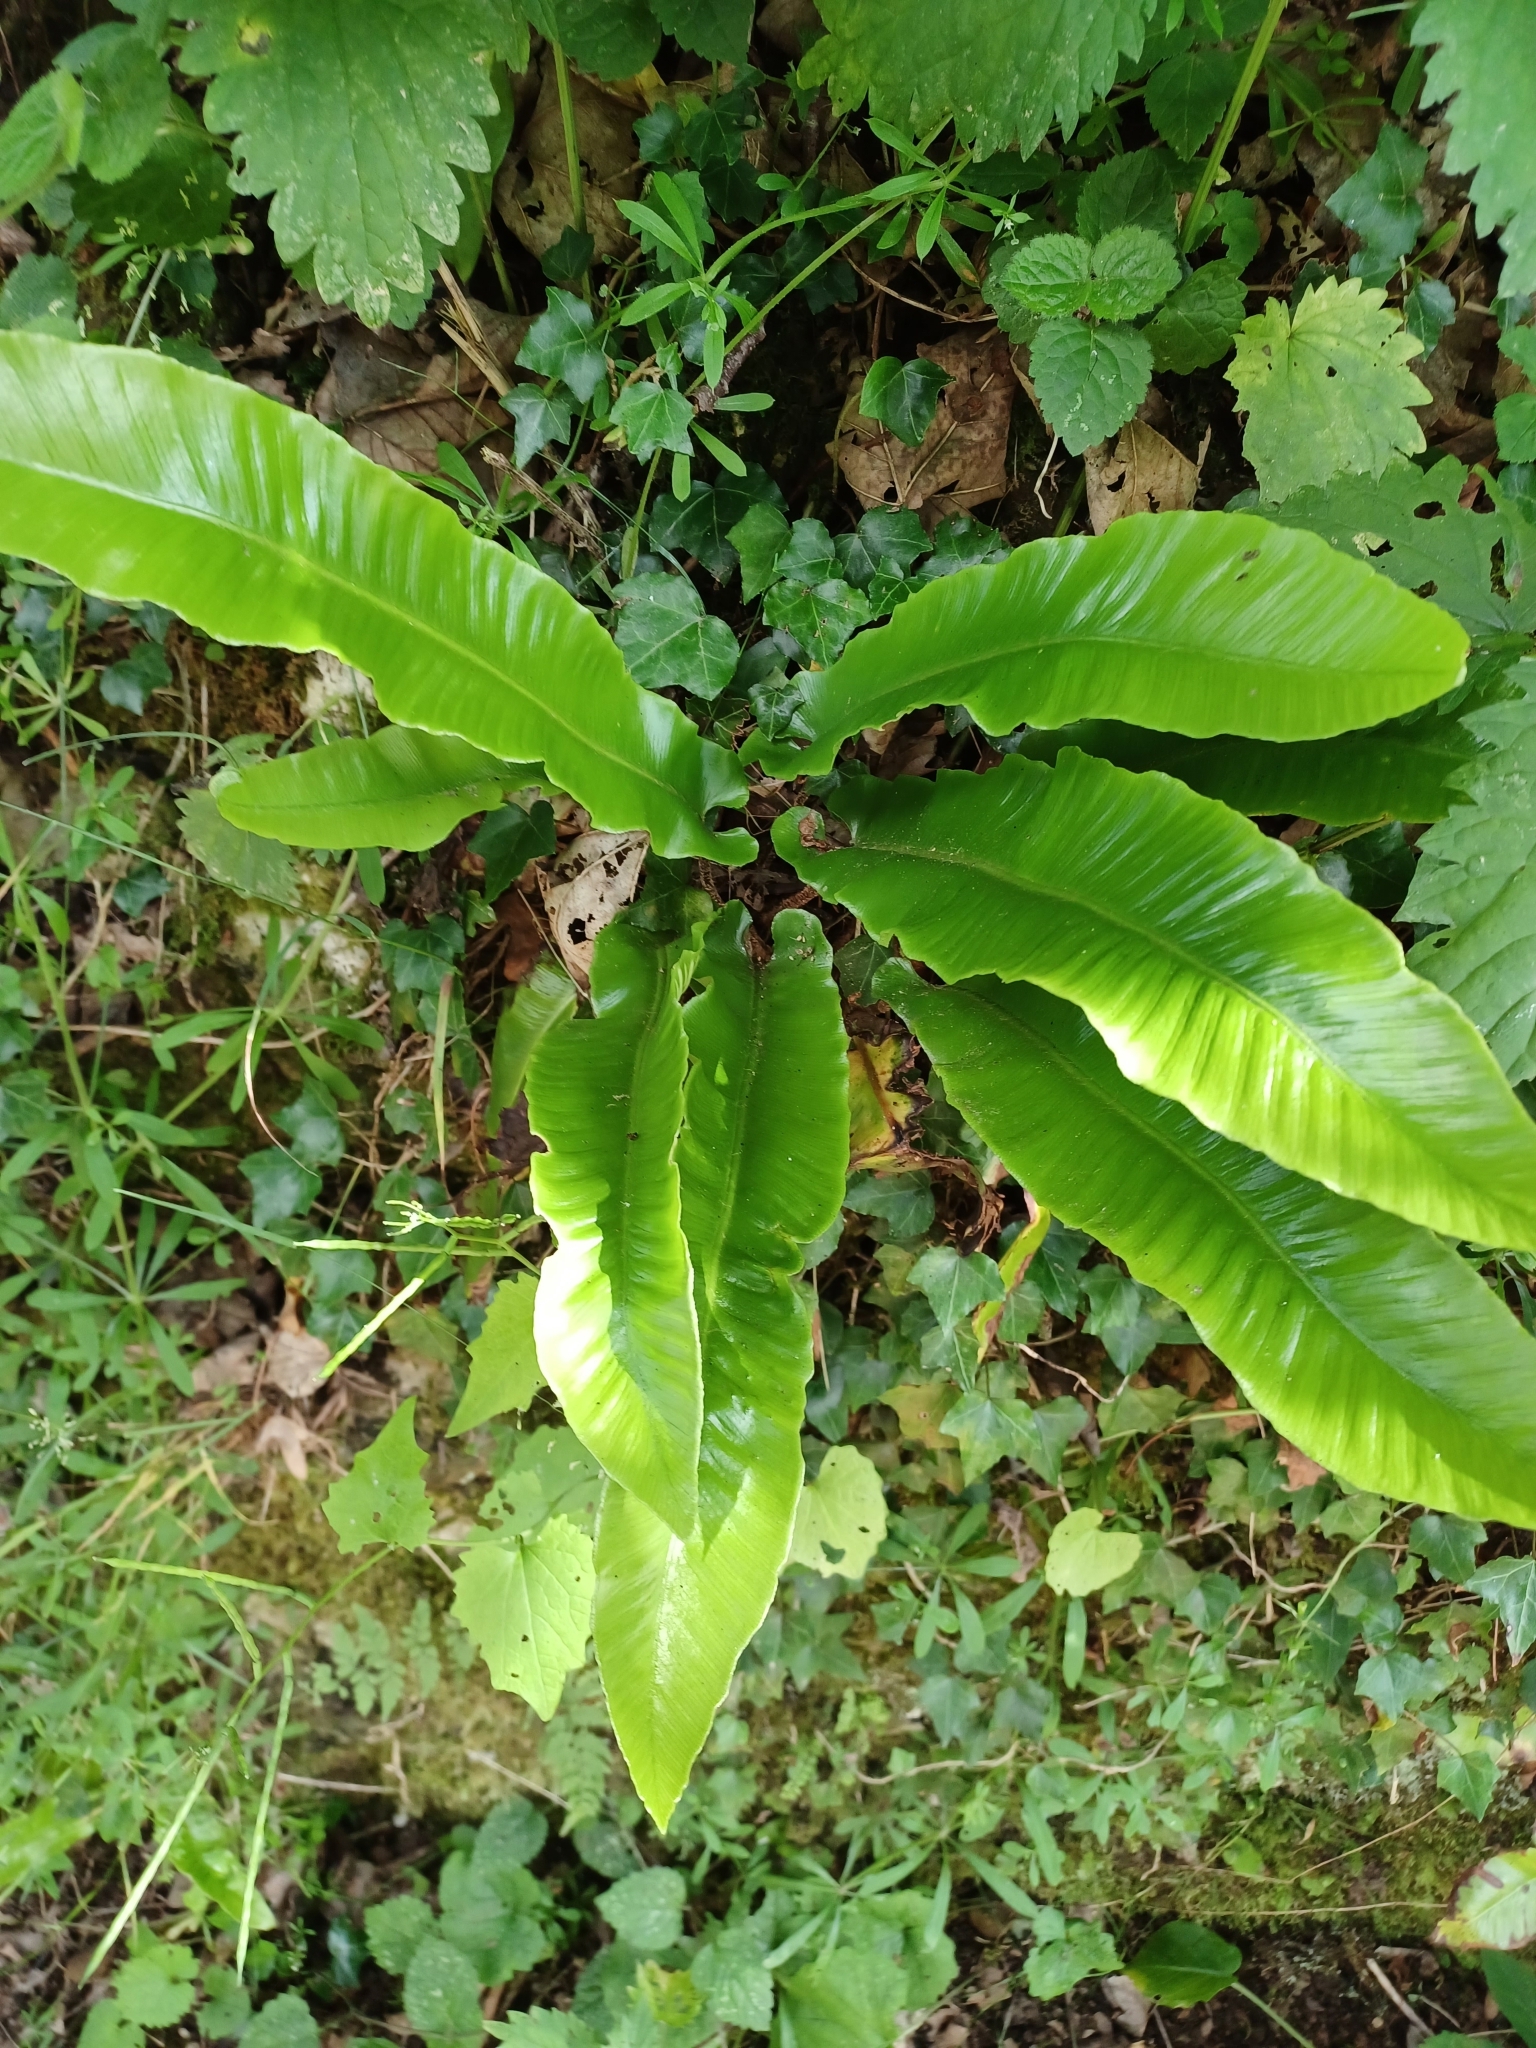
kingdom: Plantae
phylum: Tracheophyta
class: Polypodiopsida
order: Polypodiales
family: Aspleniaceae
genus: Asplenium
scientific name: Asplenium scolopendrium
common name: Hart's-tongue fern
